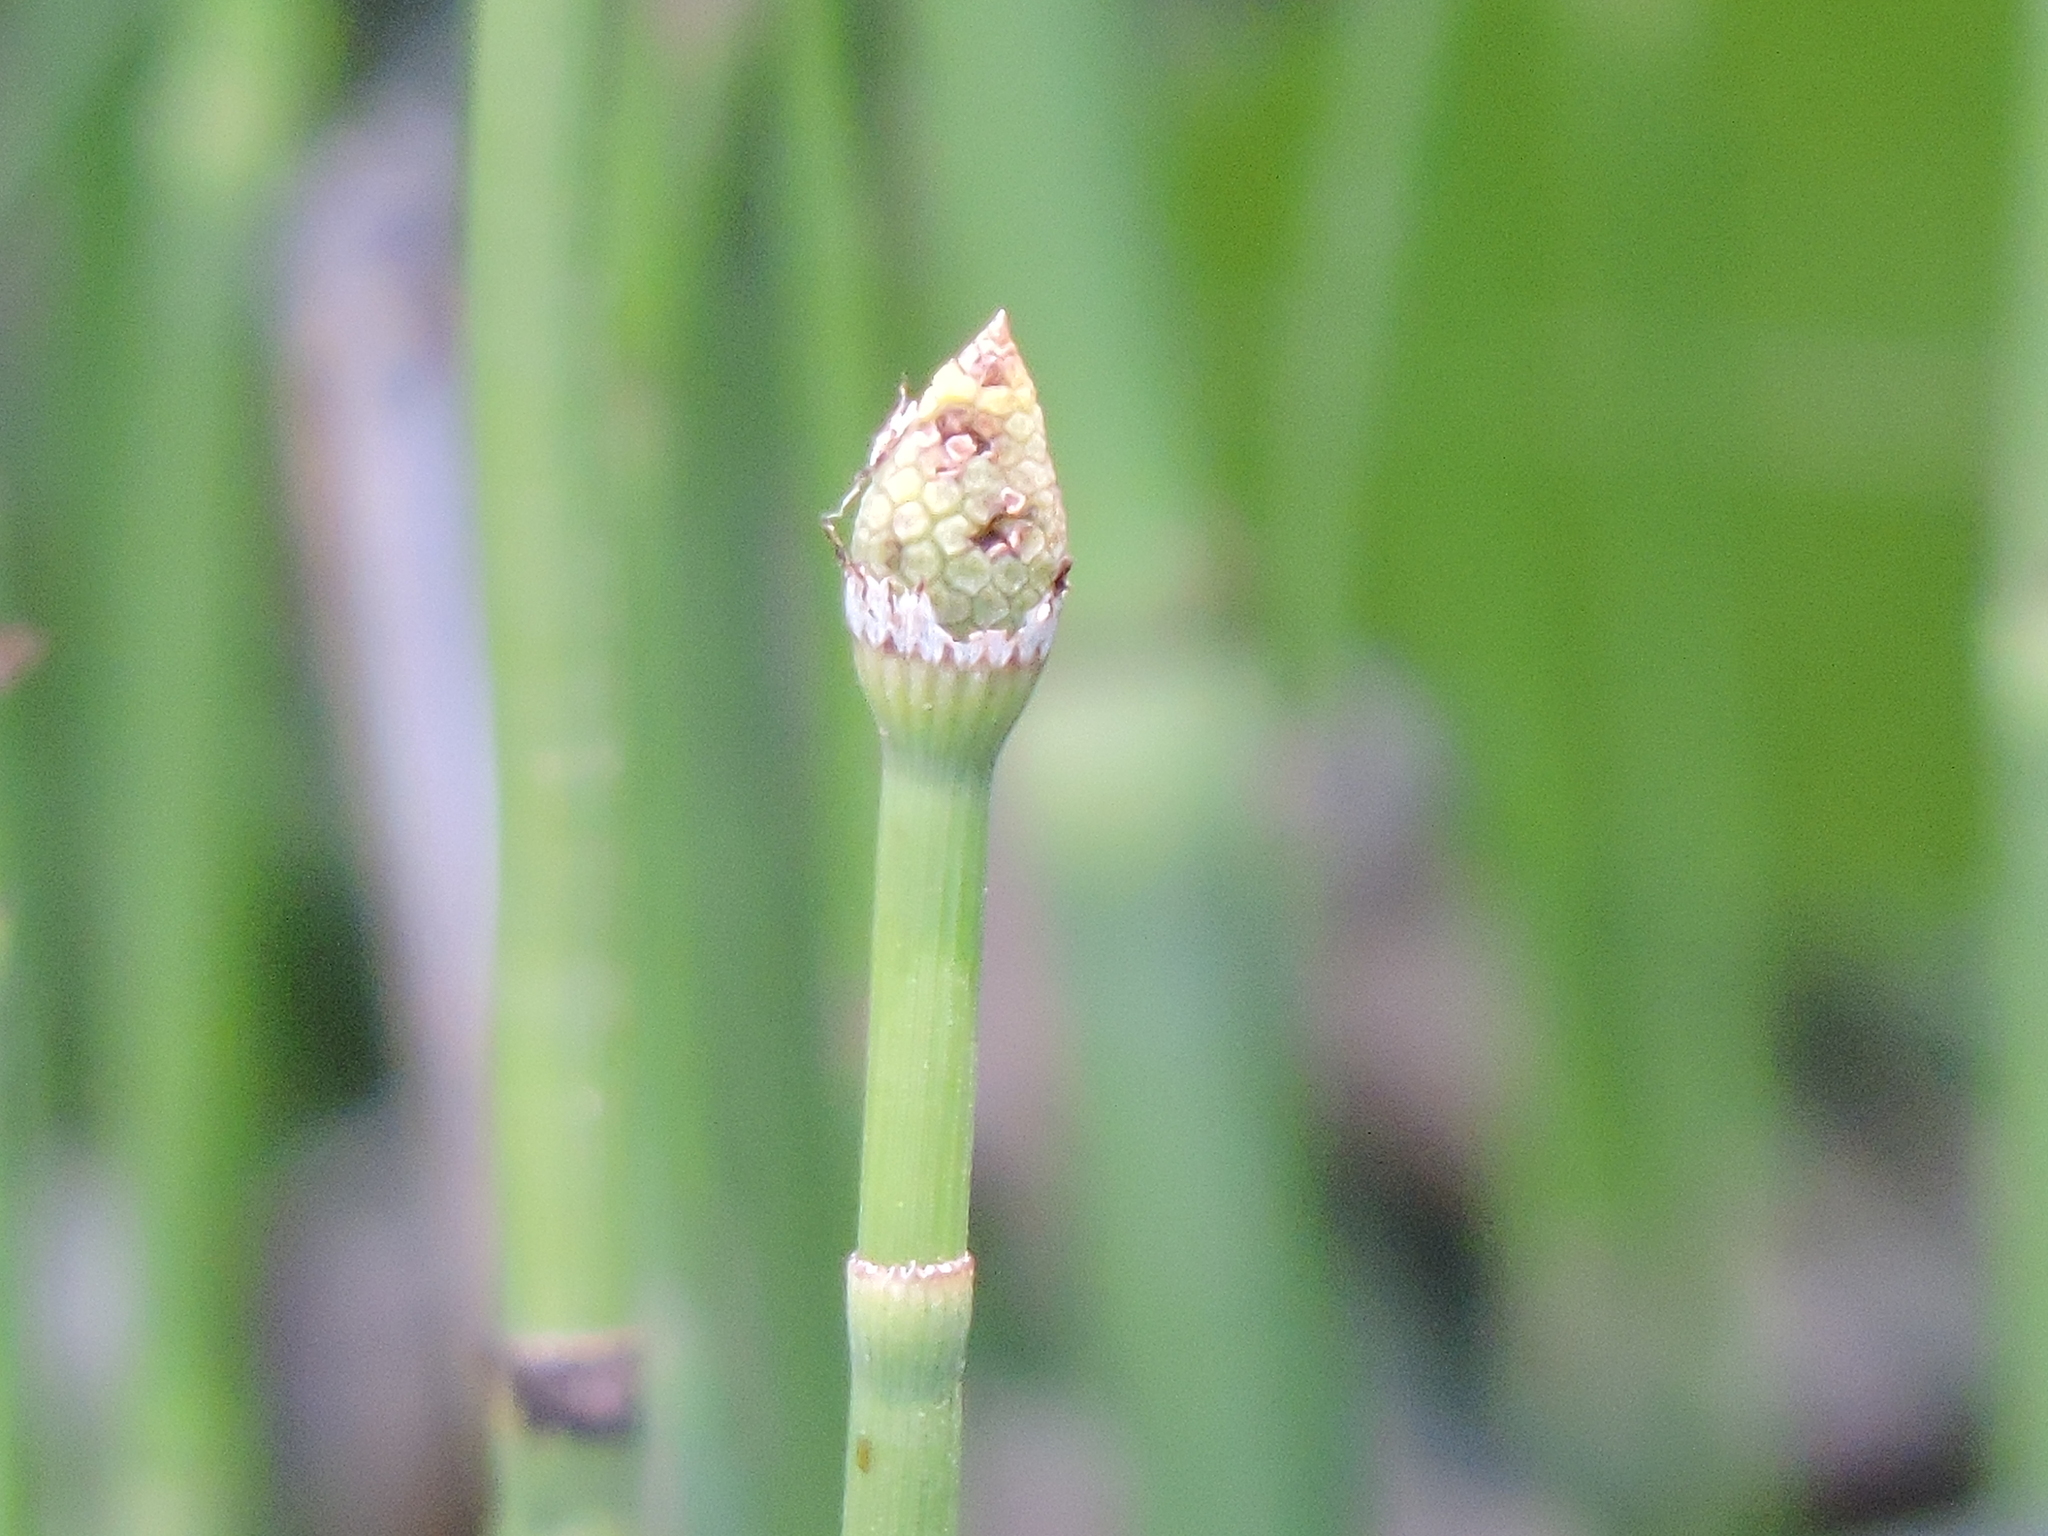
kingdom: Plantae
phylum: Tracheophyta
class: Polypodiopsida
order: Equisetales
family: Equisetaceae
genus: Equisetum
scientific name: Equisetum hyemale
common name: Rough horsetail
